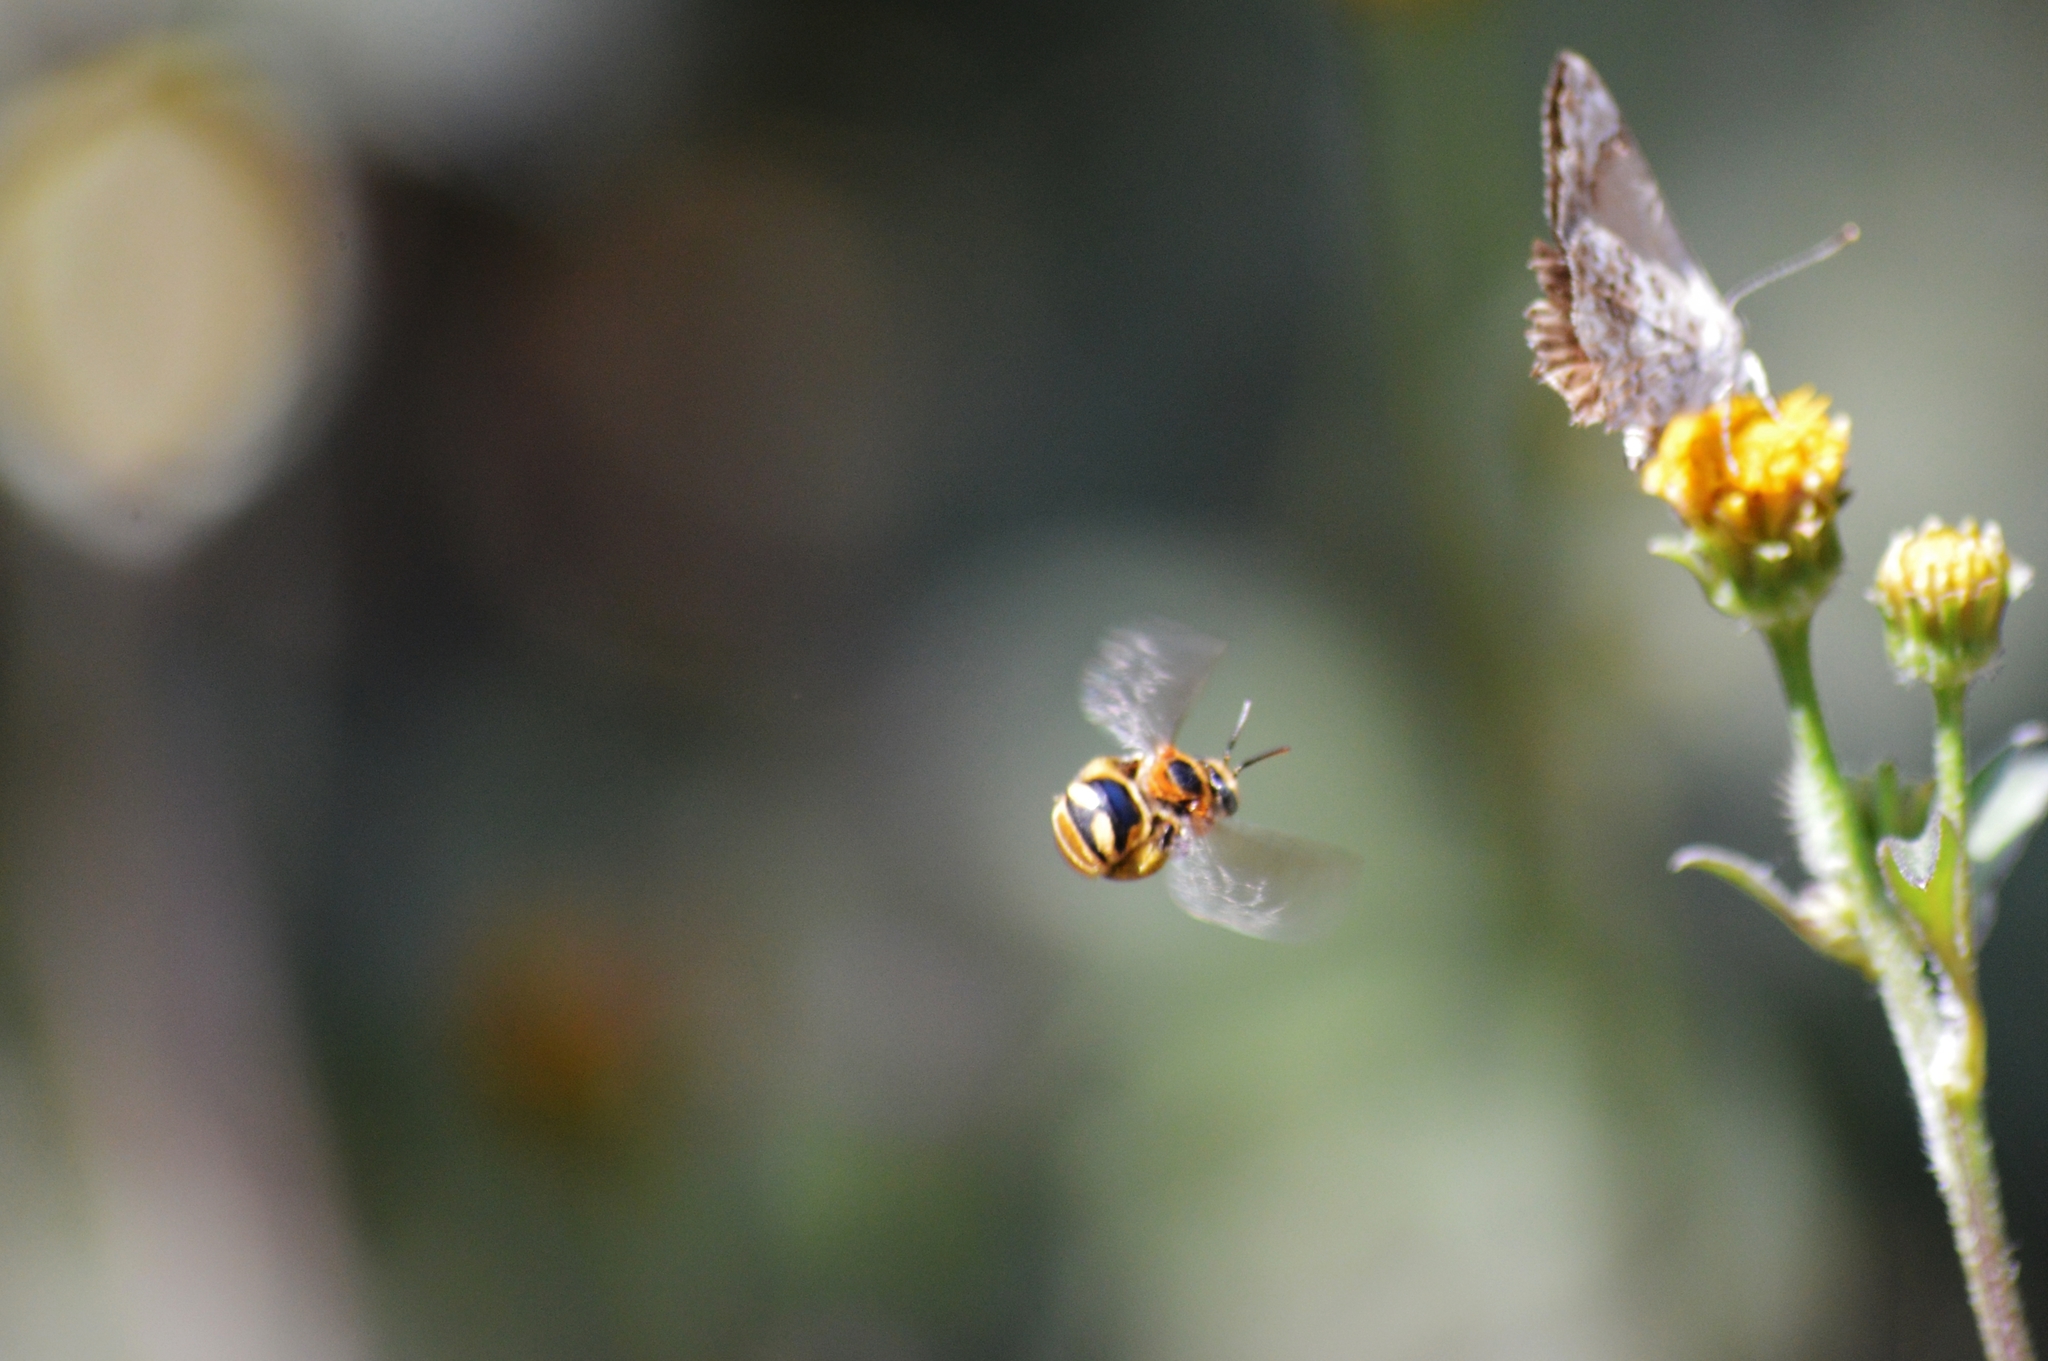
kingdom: Animalia
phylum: Arthropoda
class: Insecta
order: Hymenoptera
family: Apidae
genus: Exomalopsis
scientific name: Exomalopsis auropilosa
